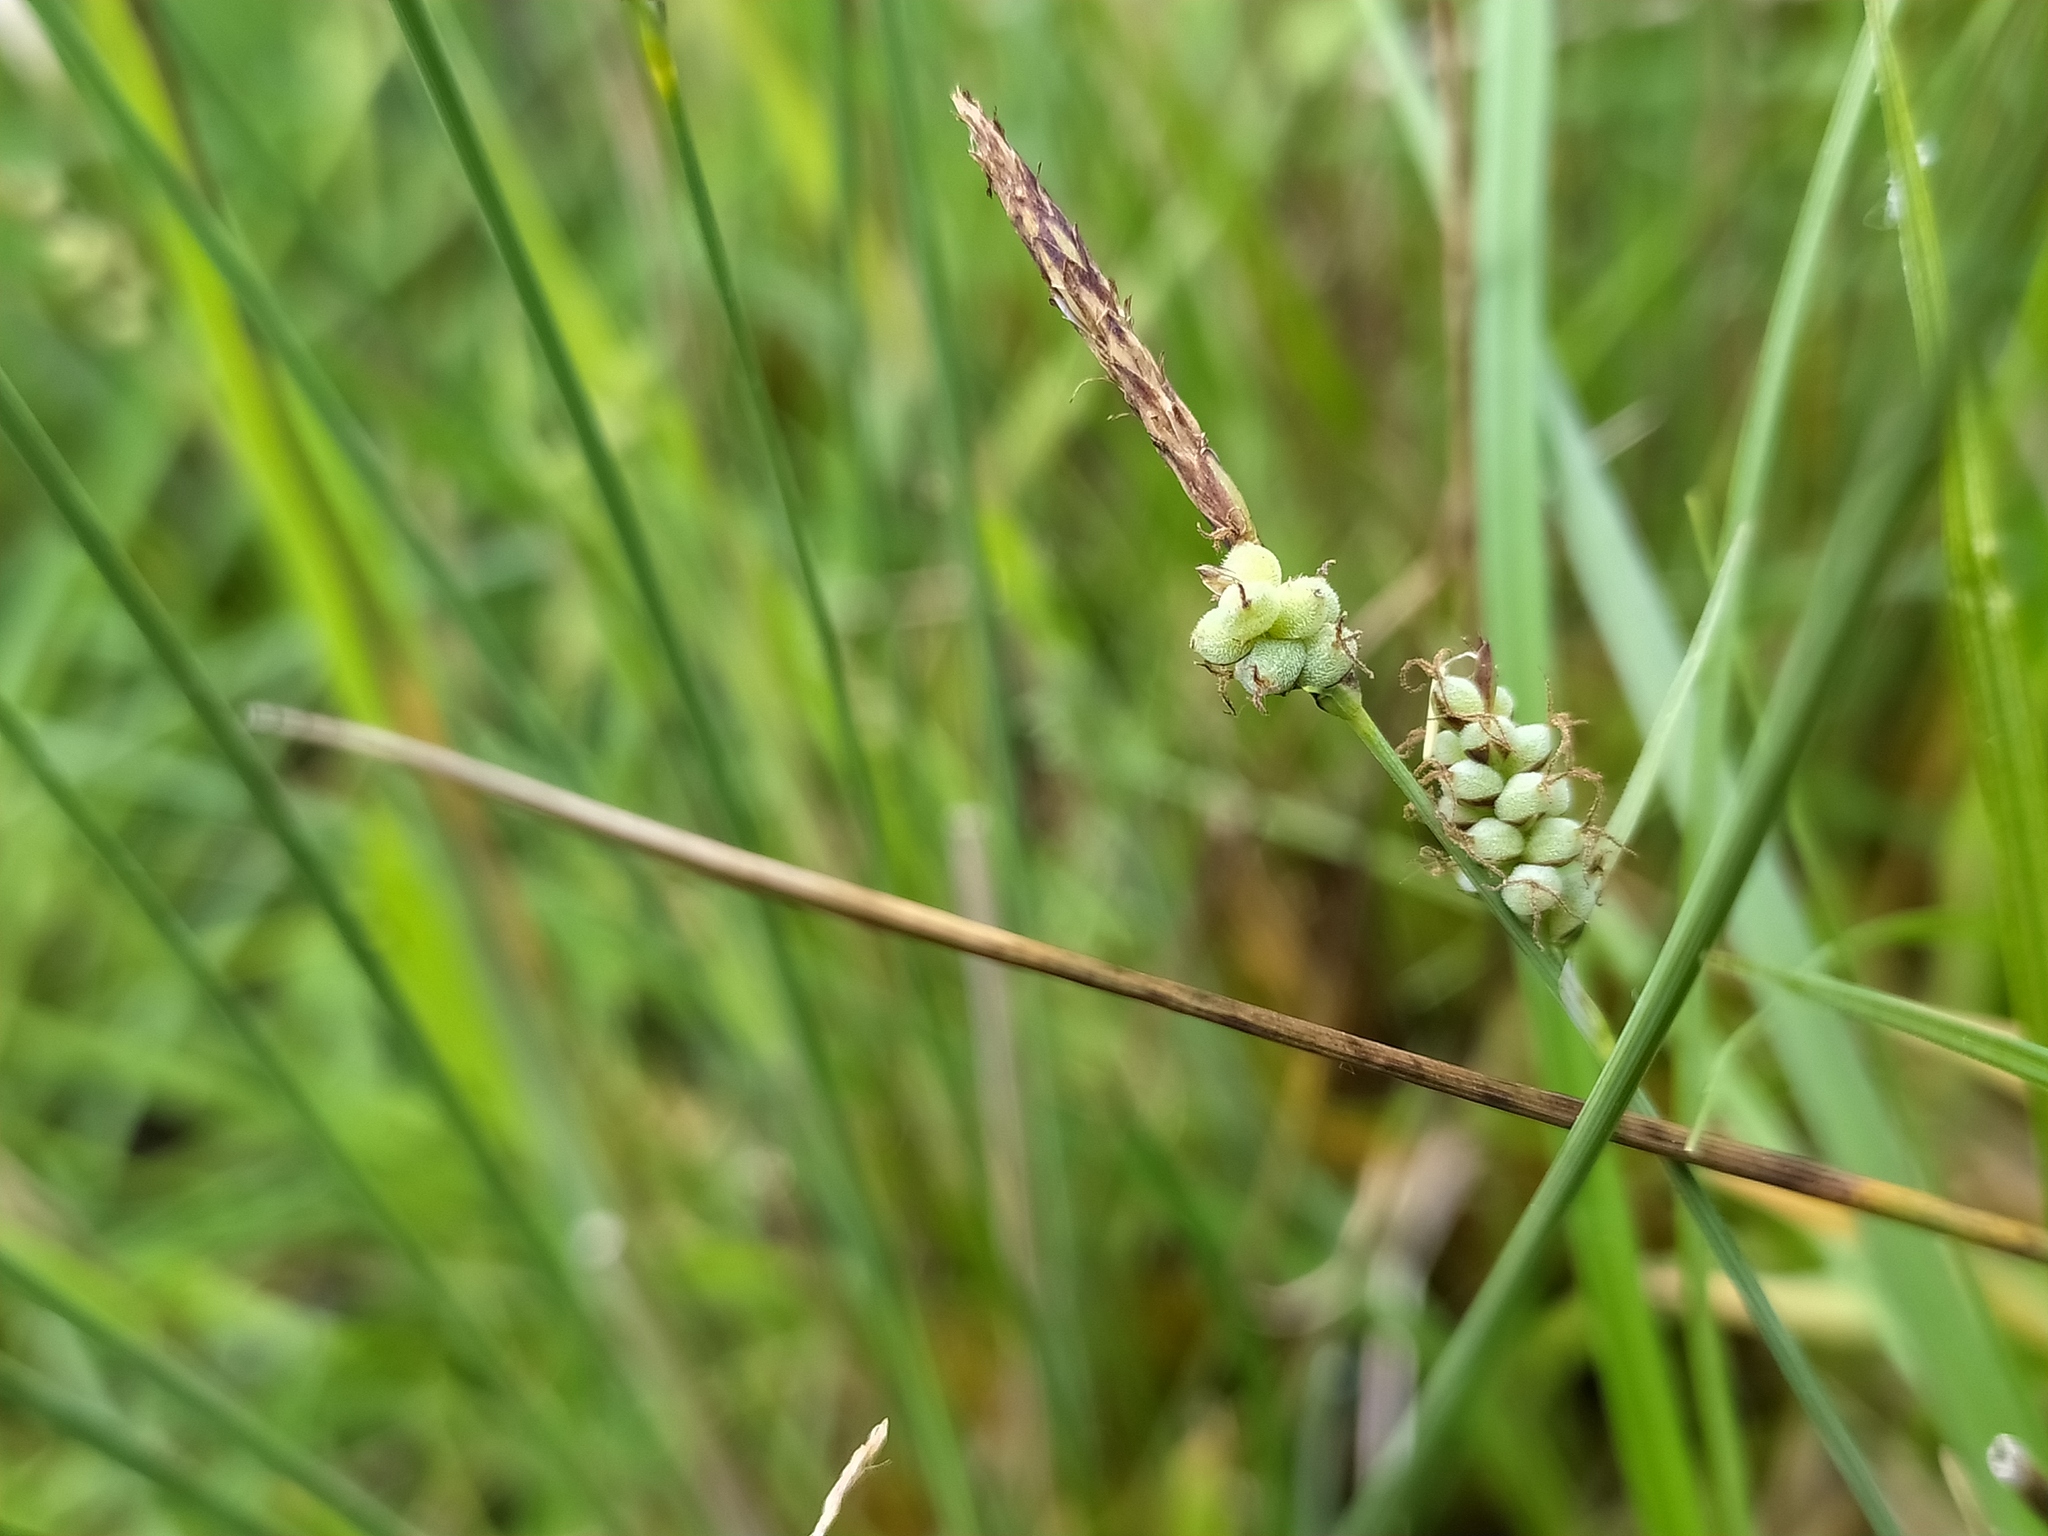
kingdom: Plantae
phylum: Tracheophyta
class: Liliopsida
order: Poales
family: Cyperaceae
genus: Carex
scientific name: Carex tomentosa
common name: Downy-fruited sedge
